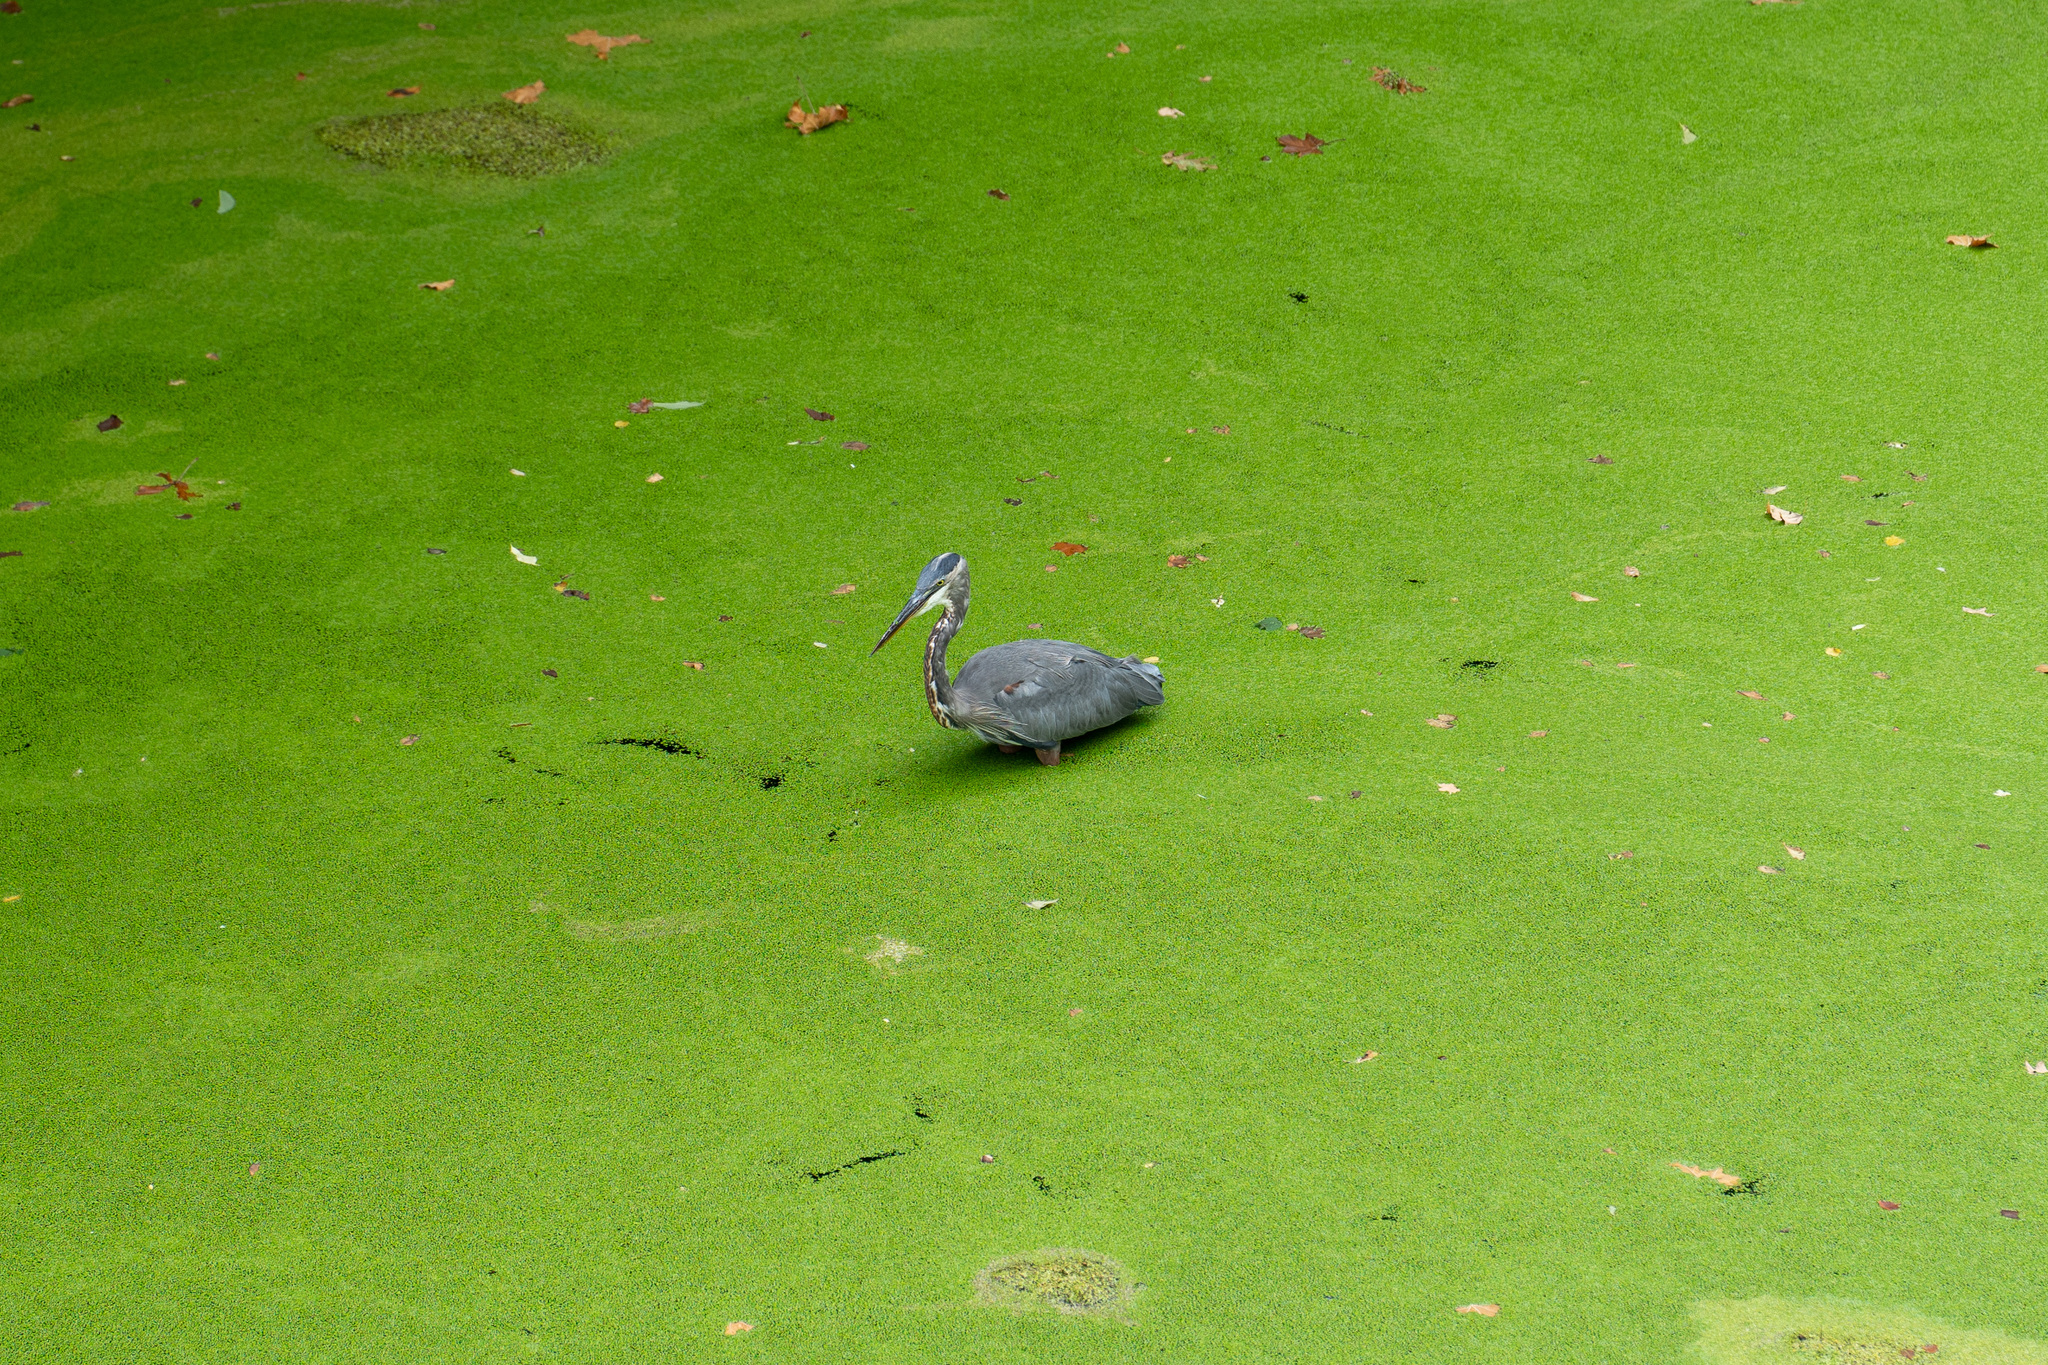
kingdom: Animalia
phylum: Chordata
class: Aves
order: Pelecaniformes
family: Ardeidae
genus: Ardea
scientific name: Ardea herodias
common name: Great blue heron
